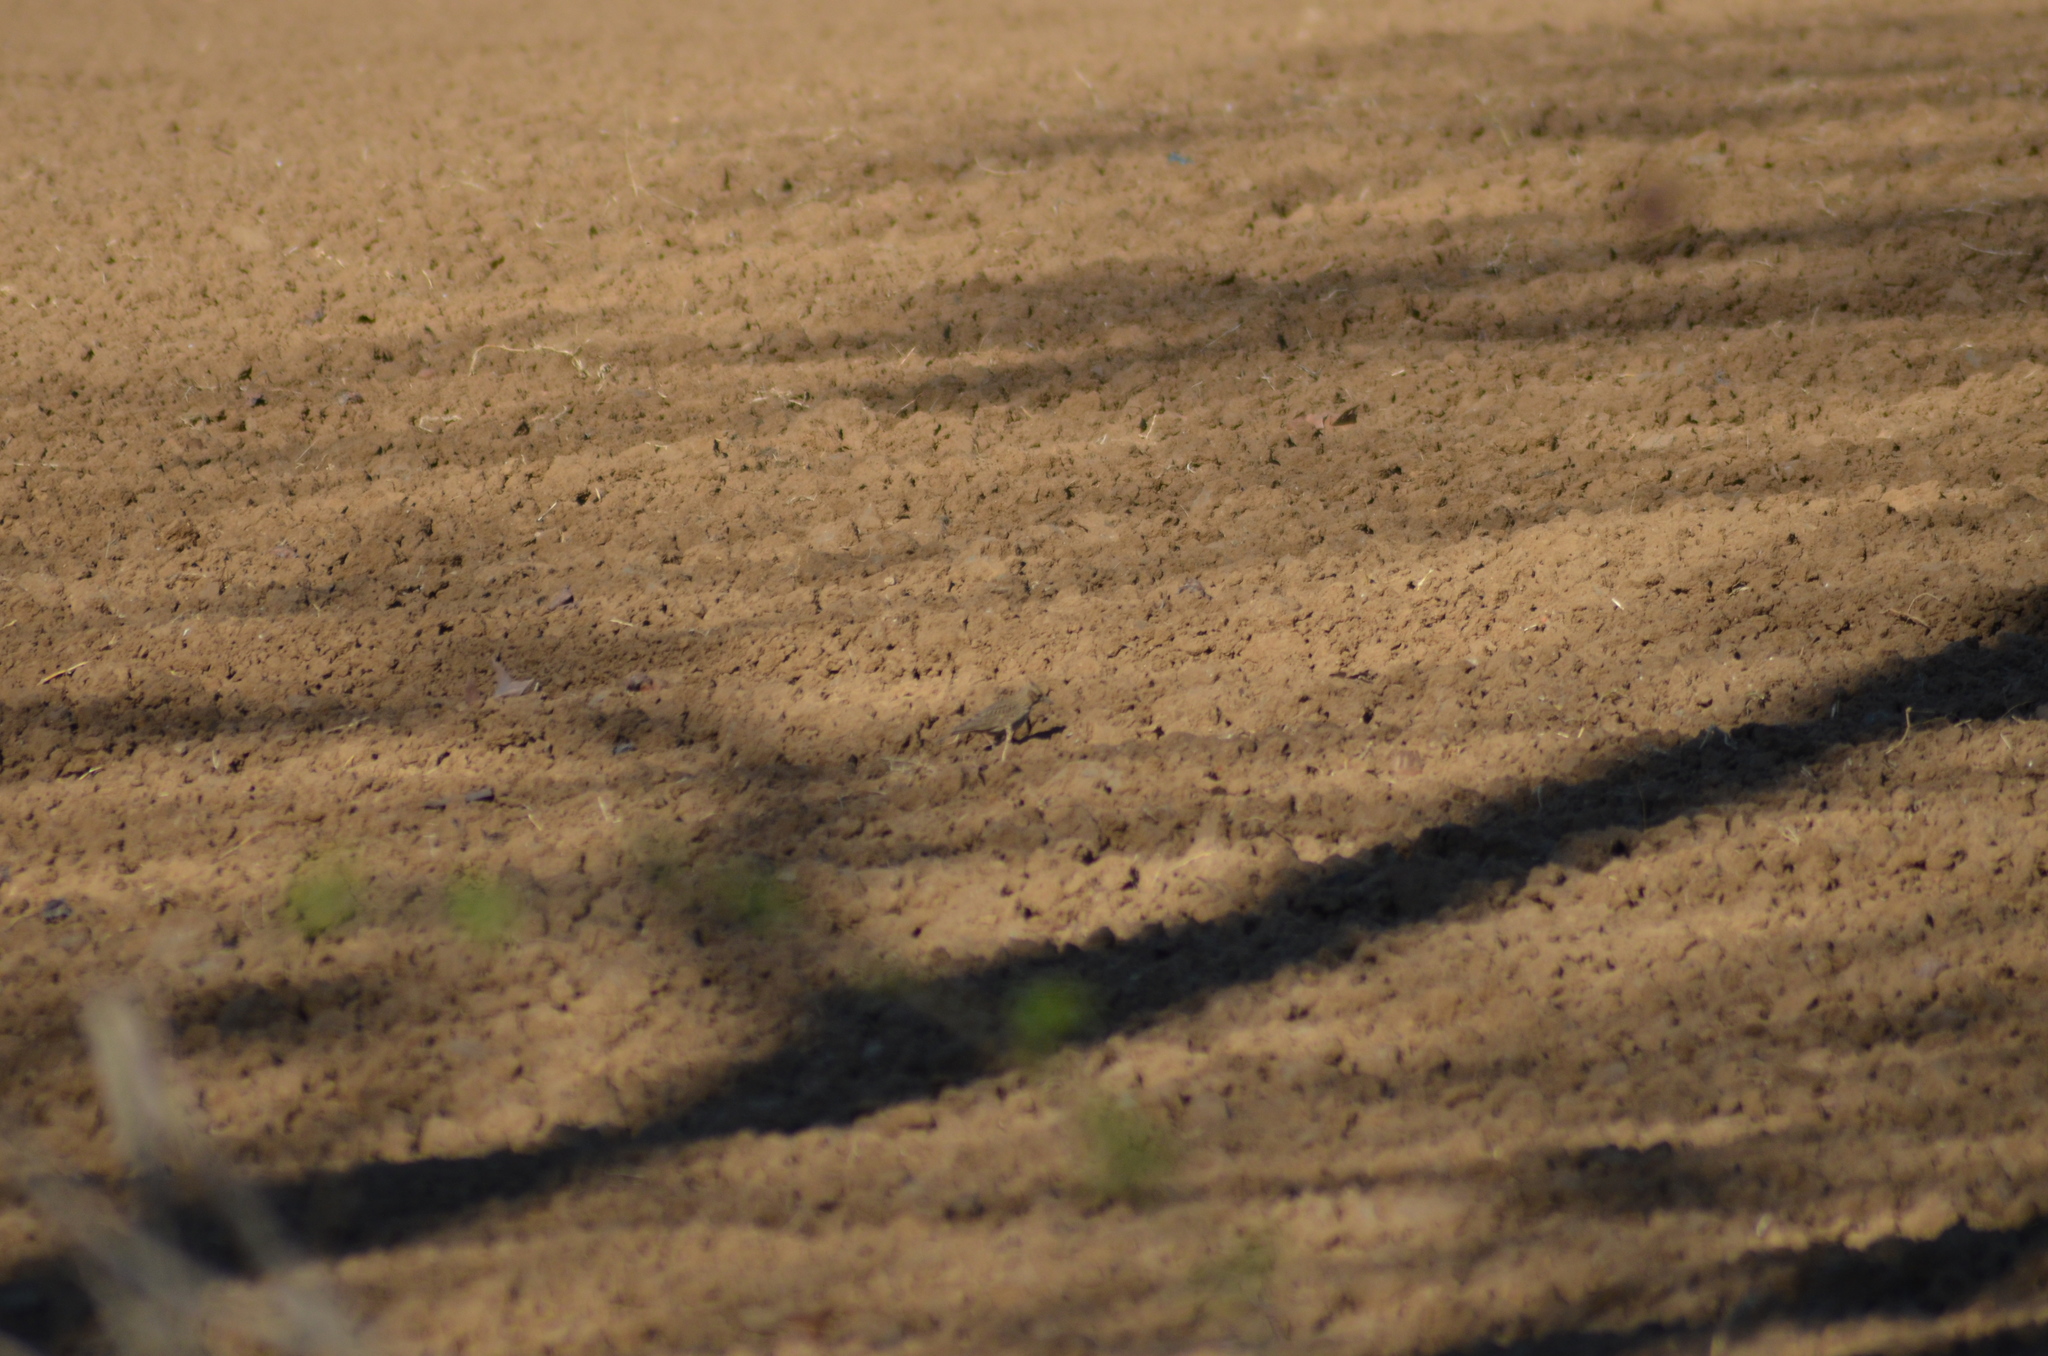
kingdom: Animalia
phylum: Chordata
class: Aves
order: Passeriformes
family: Alaudidae
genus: Galerida
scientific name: Galerida cristata
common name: Crested lark
